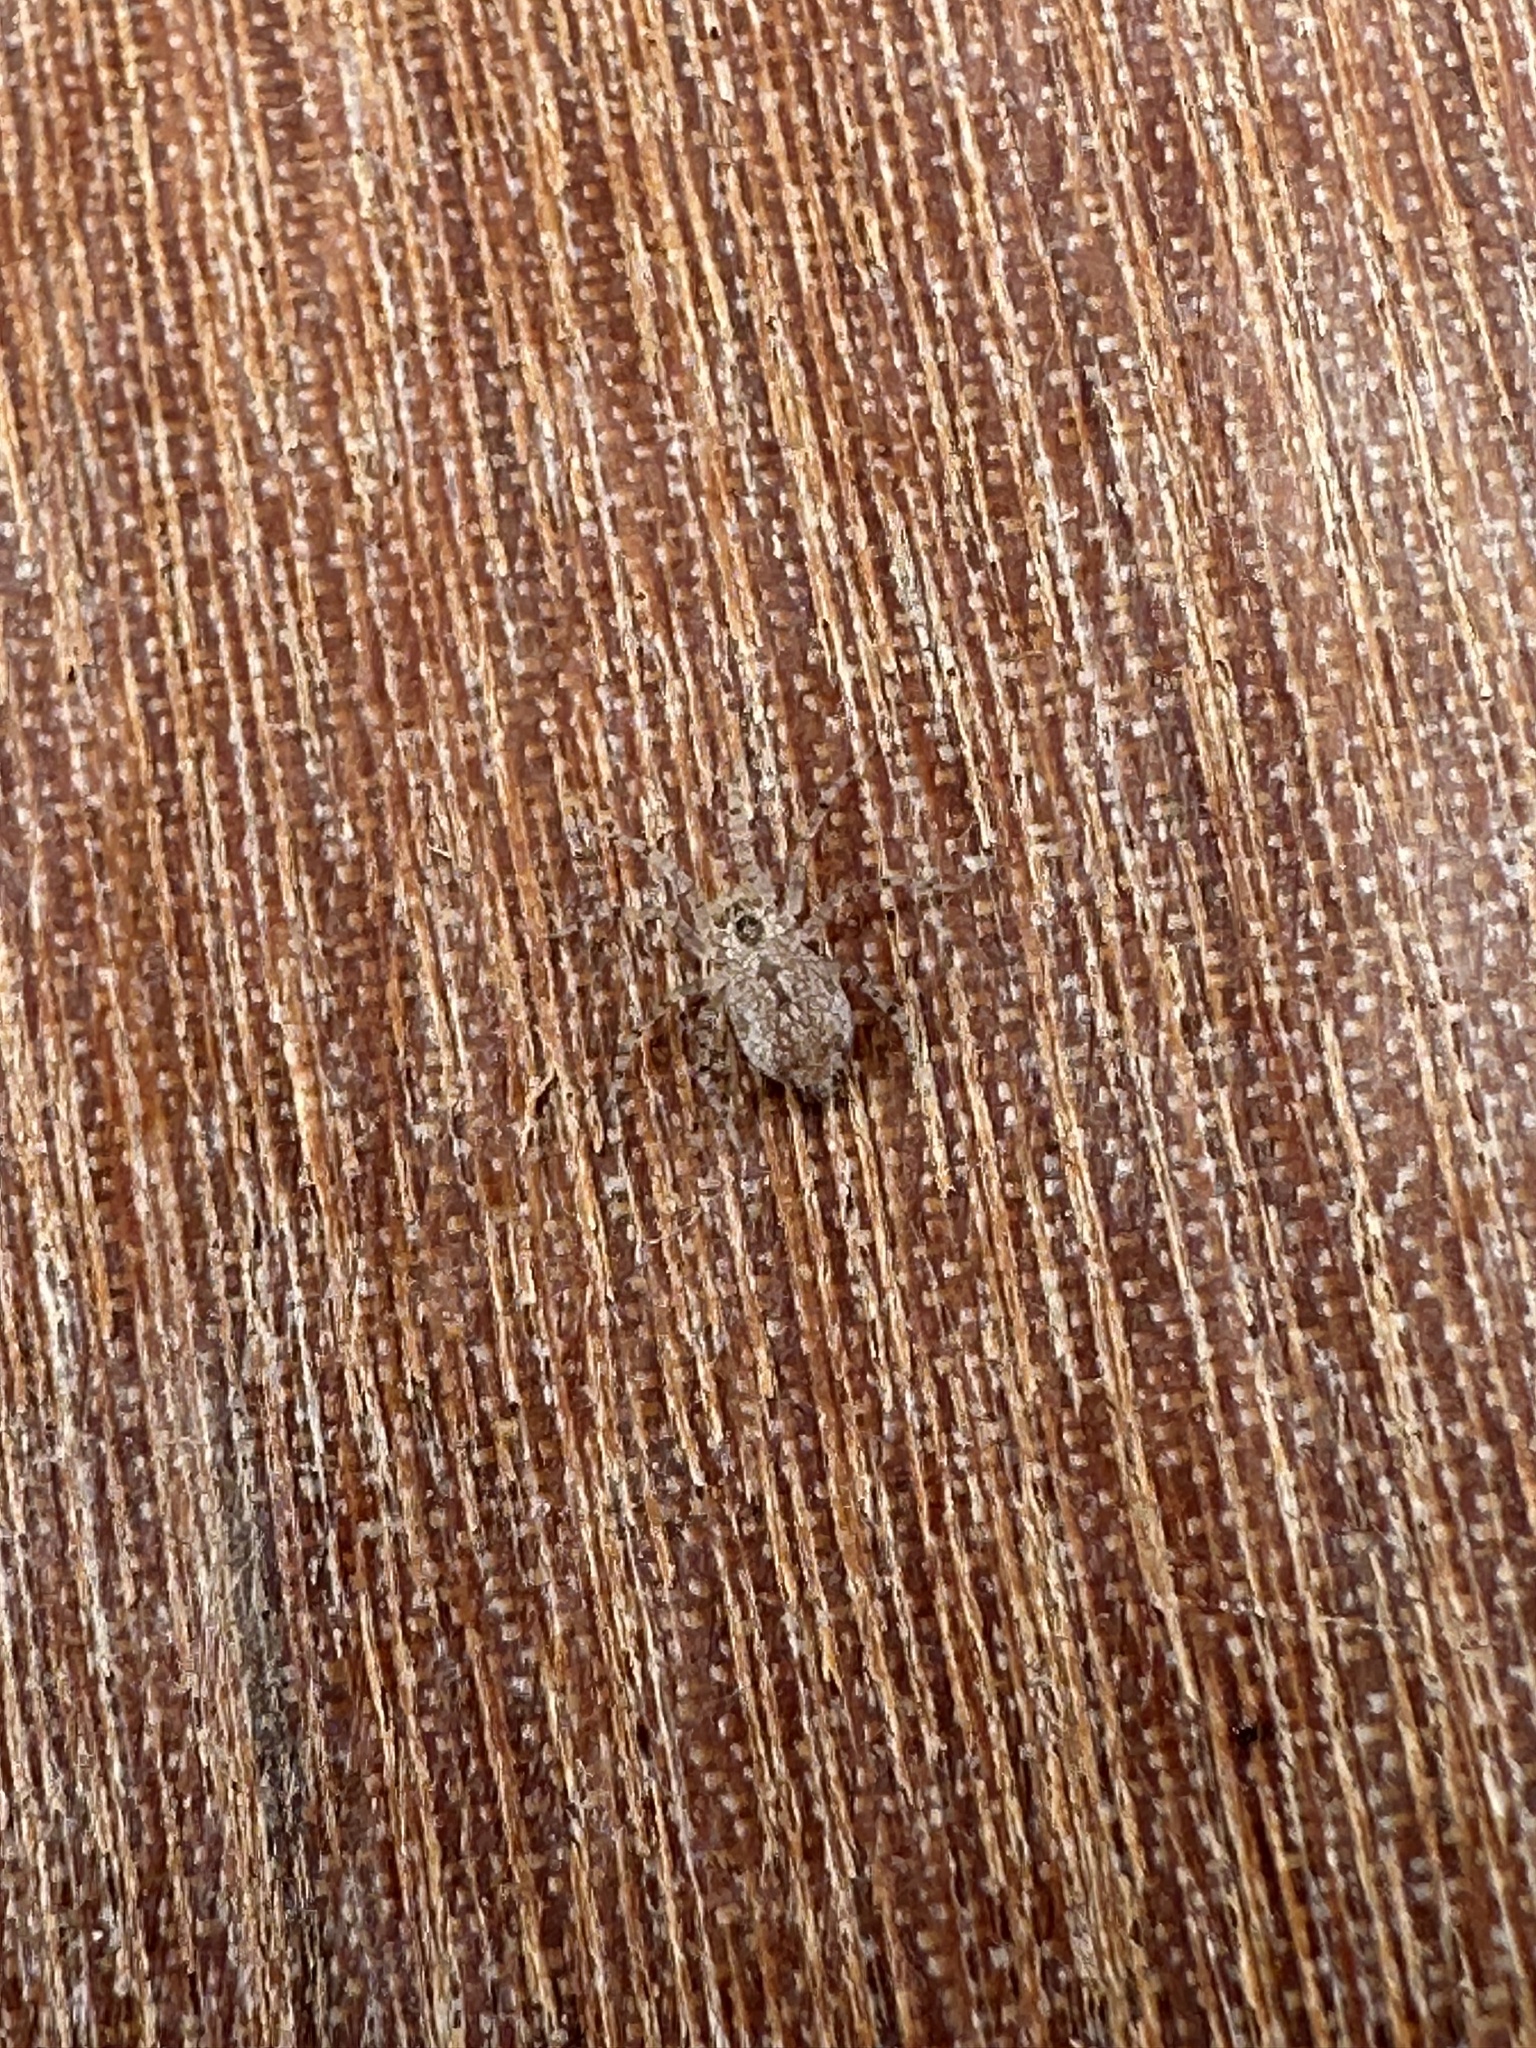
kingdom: Animalia
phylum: Arthropoda
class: Arachnida
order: Araneae
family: Oecobiidae
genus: Oecobius
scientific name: Oecobius concinnus
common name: Disc web spiders
